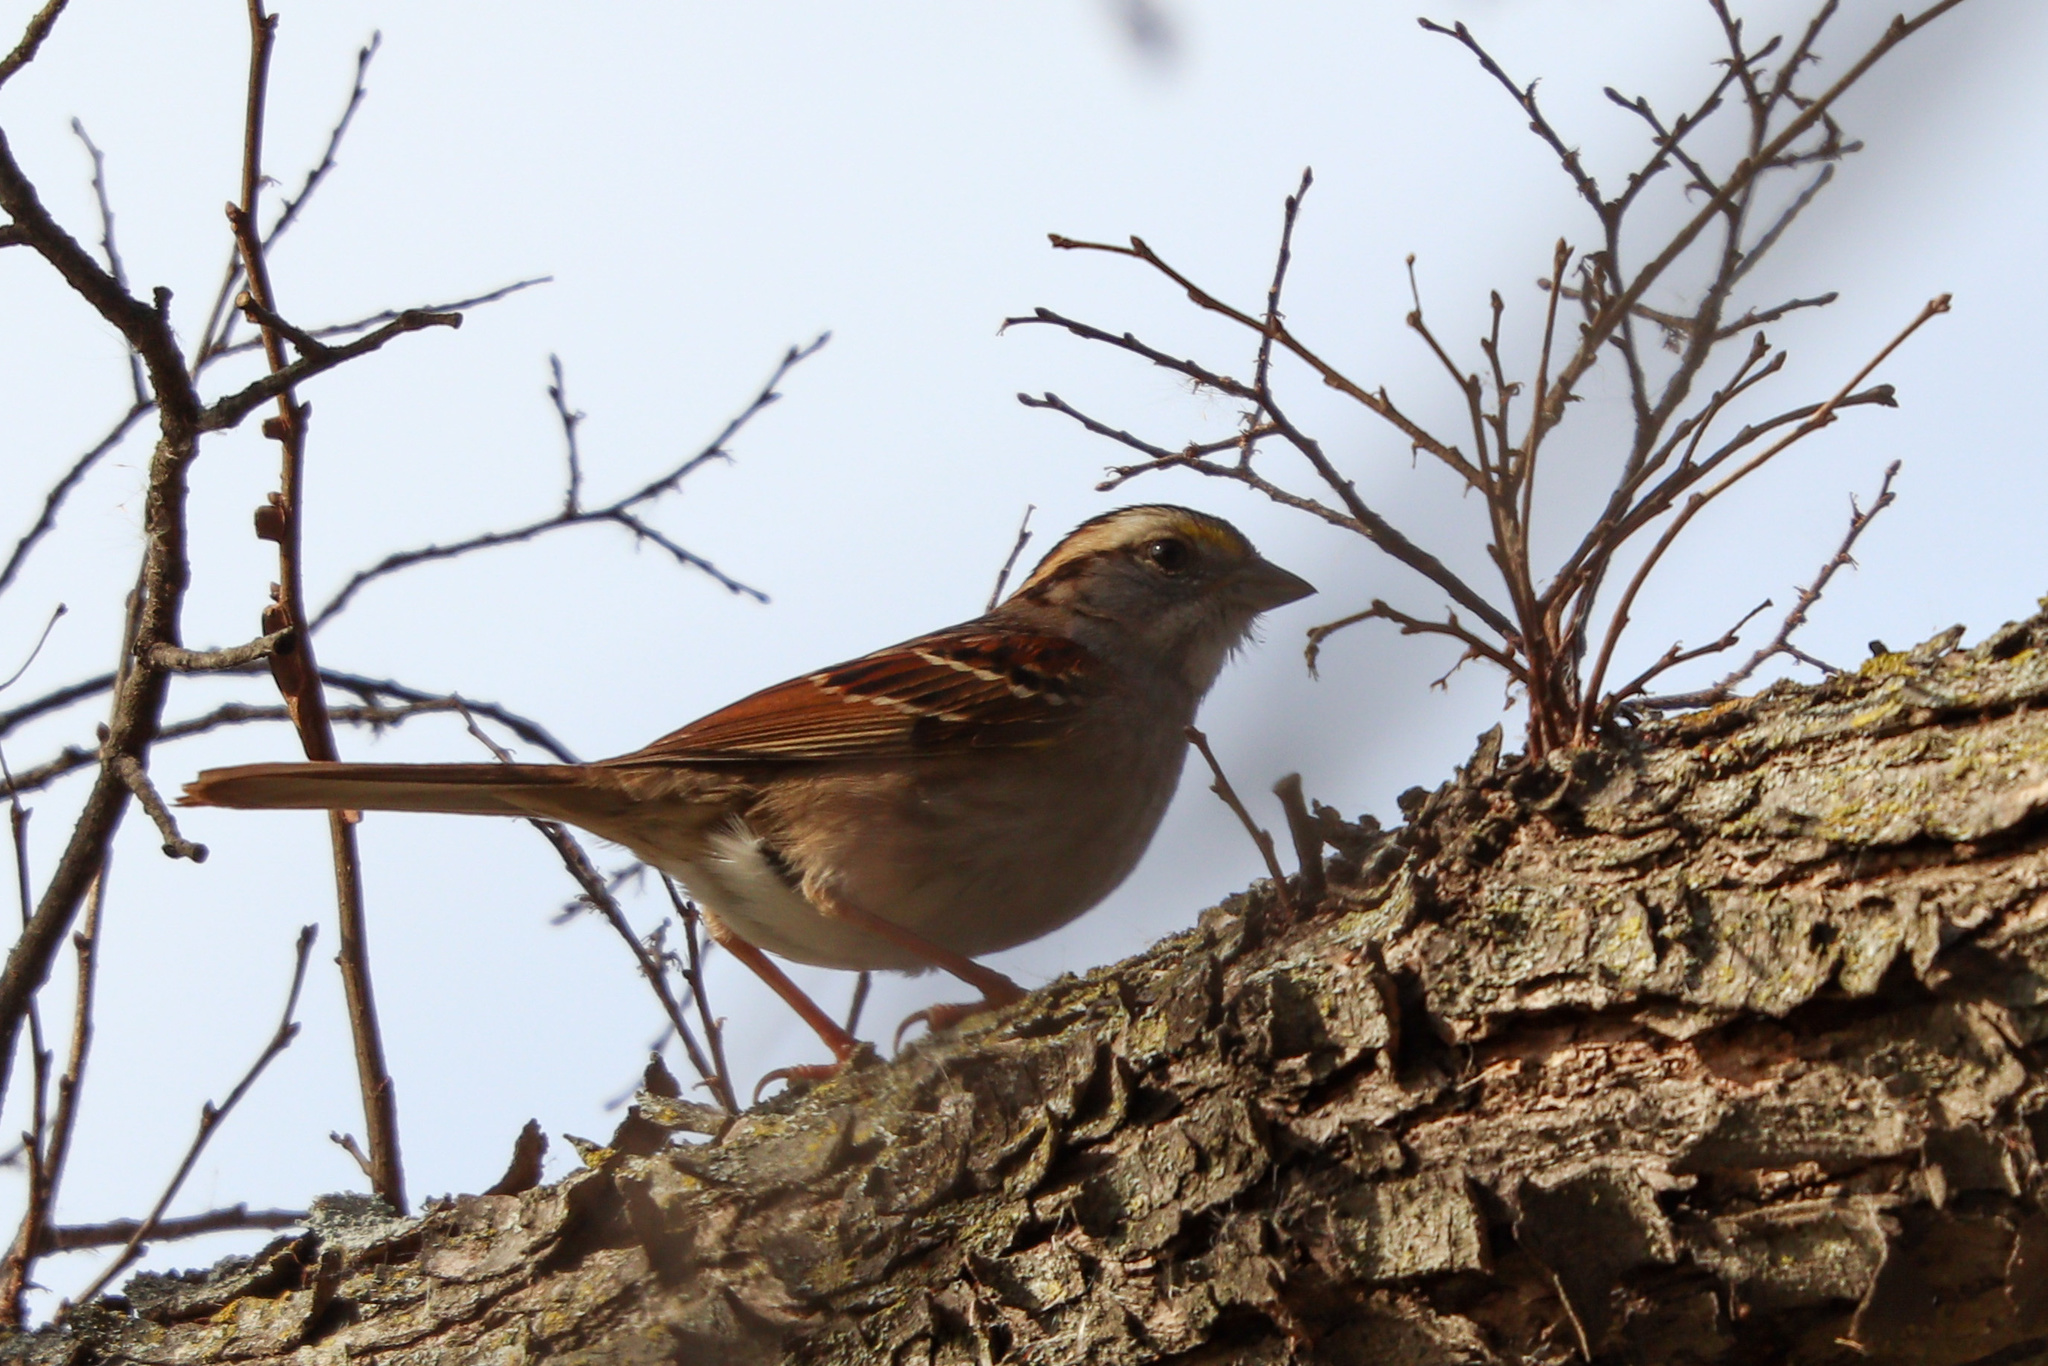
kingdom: Animalia
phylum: Chordata
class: Aves
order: Passeriformes
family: Passerellidae
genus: Zonotrichia
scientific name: Zonotrichia albicollis
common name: White-throated sparrow
